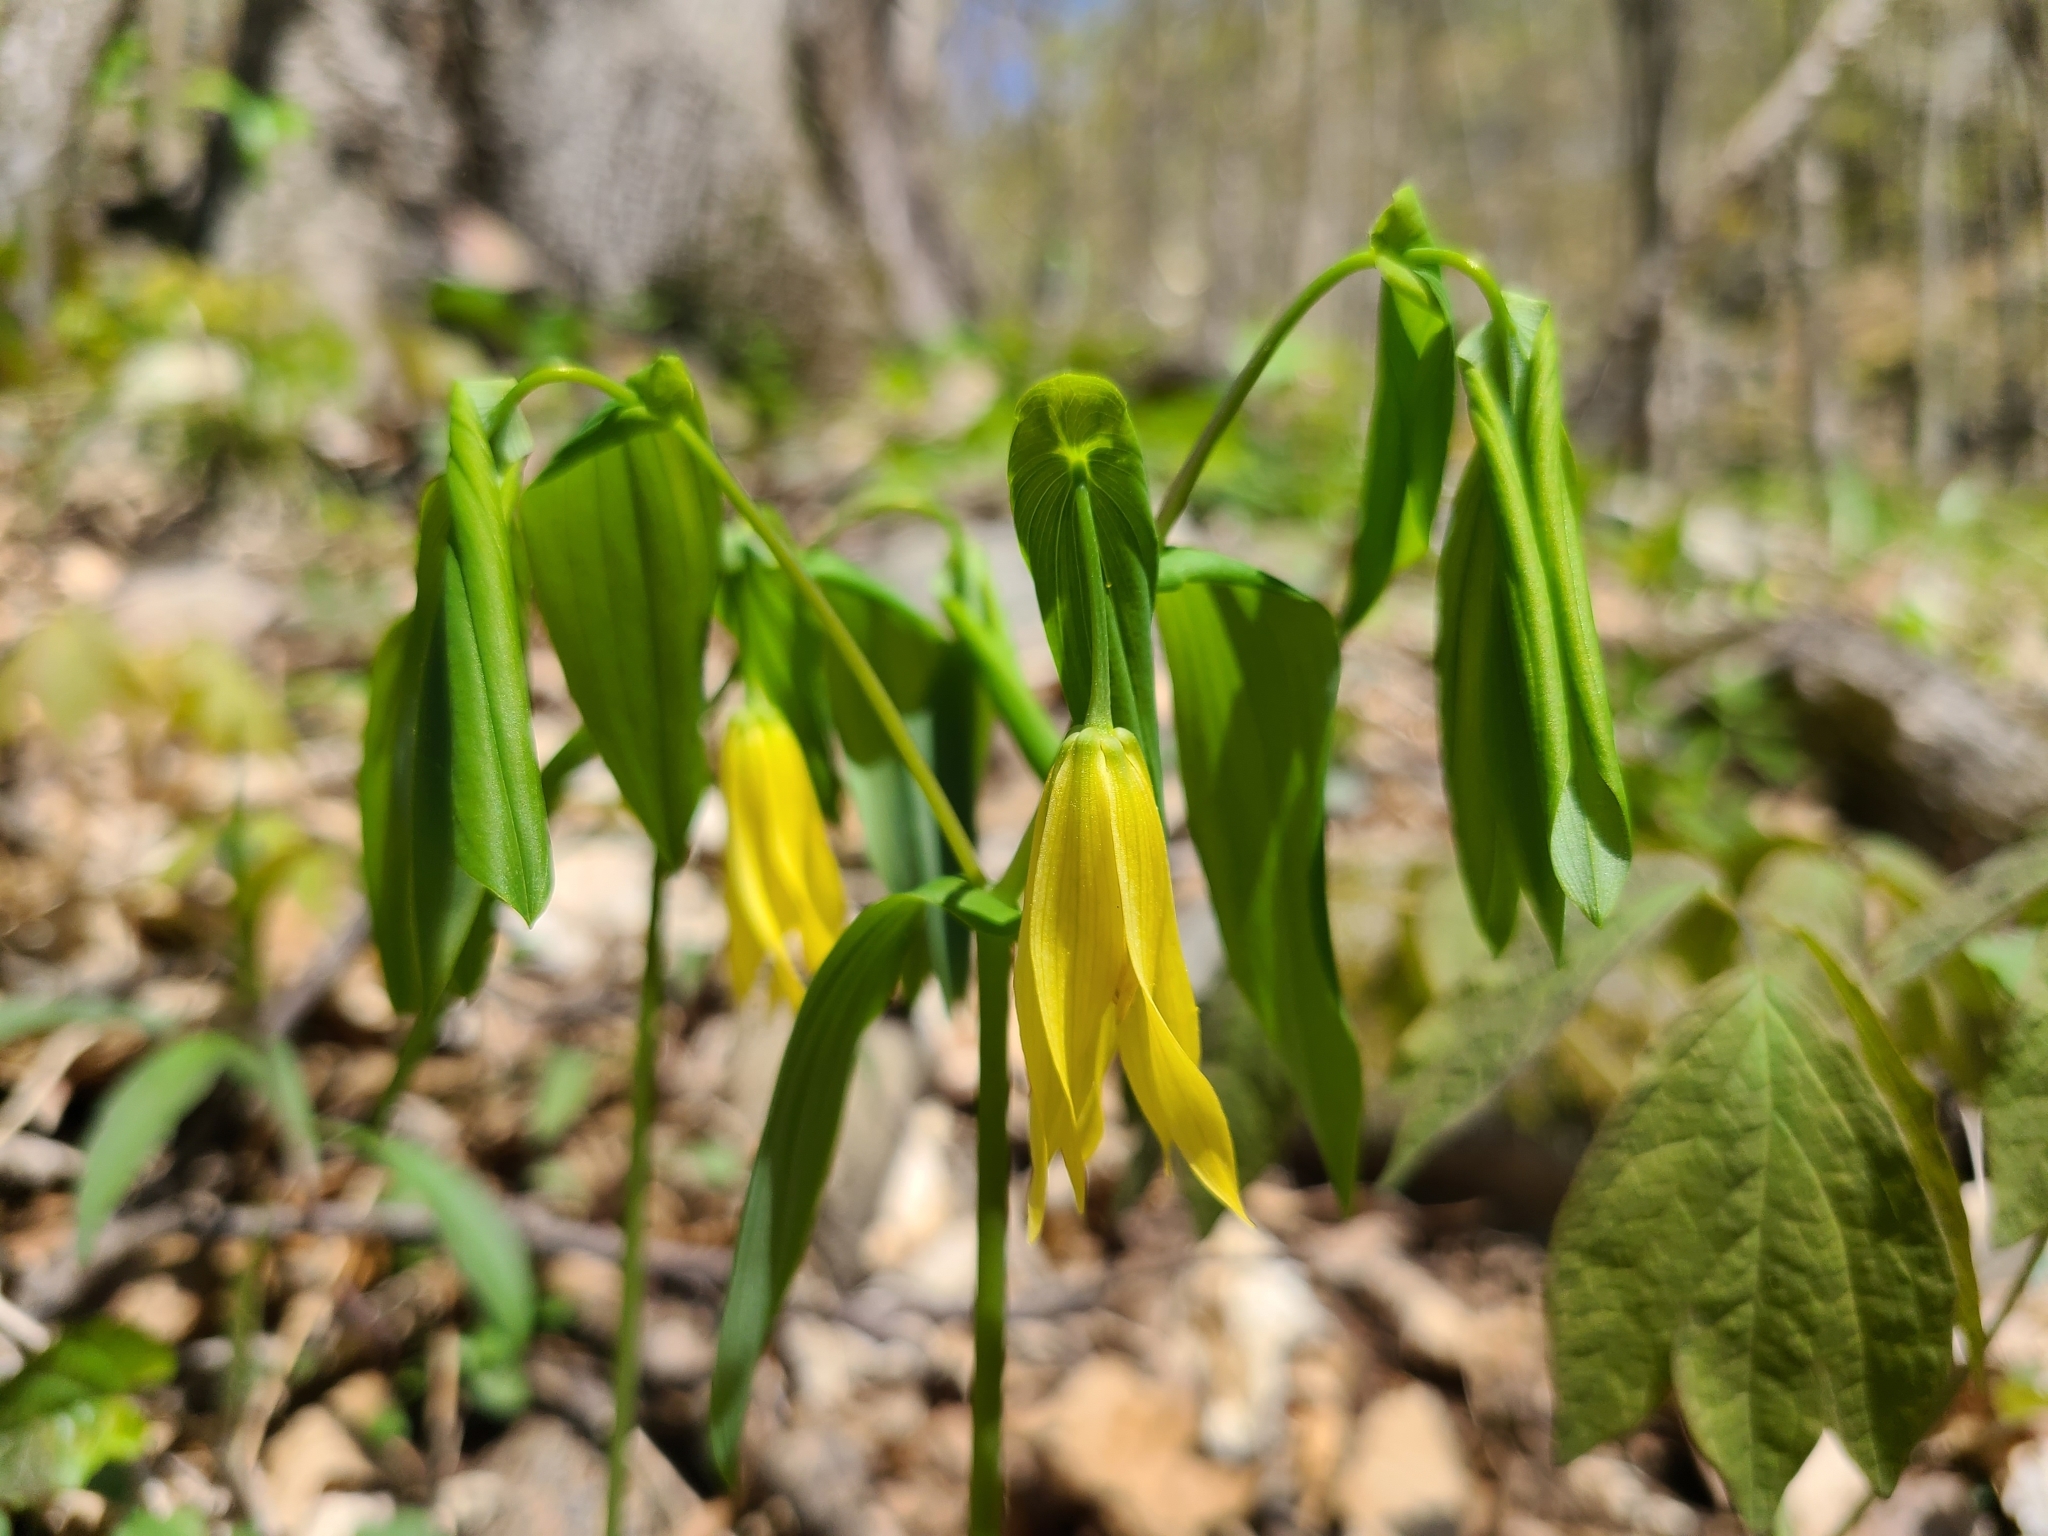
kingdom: Plantae
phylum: Tracheophyta
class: Liliopsida
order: Liliales
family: Colchicaceae
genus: Uvularia
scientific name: Uvularia grandiflora
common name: Bellwort
